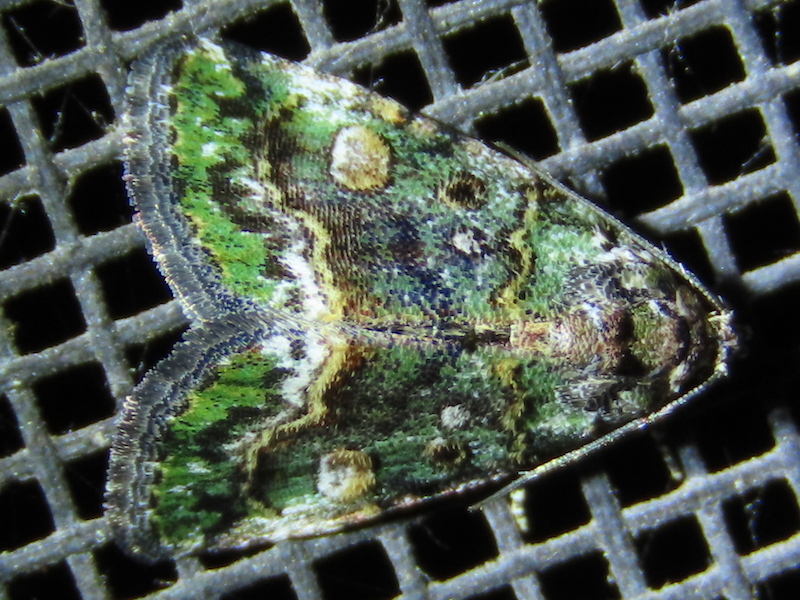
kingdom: Animalia
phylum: Arthropoda
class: Insecta
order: Lepidoptera
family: Noctuidae
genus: Lithacodia
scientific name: Lithacodia musta
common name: Small mossy glyph
